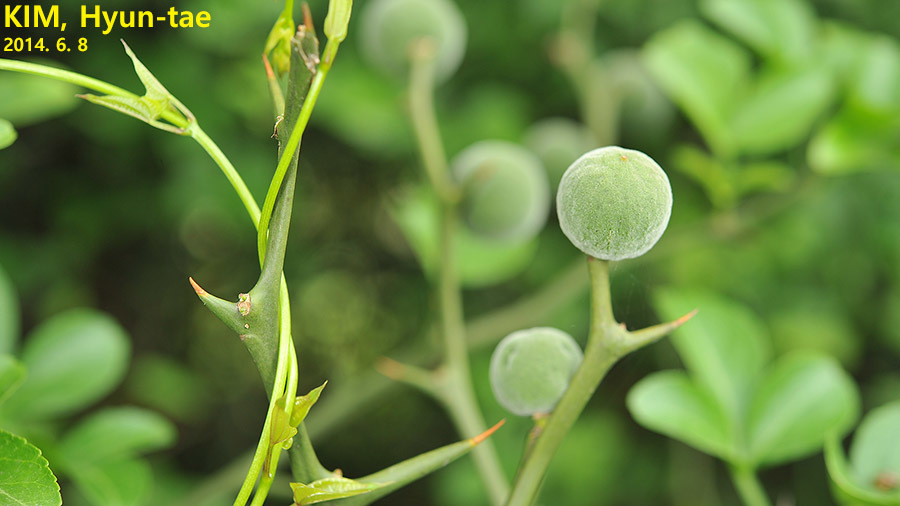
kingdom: Plantae
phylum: Tracheophyta
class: Magnoliopsida
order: Sapindales
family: Rutaceae
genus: Citrus
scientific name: Citrus trifoliata
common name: Japanese bitter-orange
